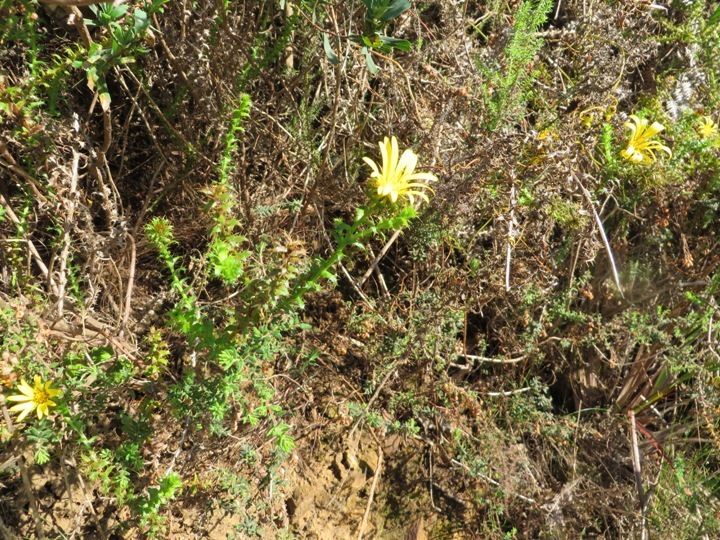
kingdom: Plantae
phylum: Tracheophyta
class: Magnoliopsida
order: Asterales
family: Asteraceae
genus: Cullumia
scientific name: Cullumia setosa
